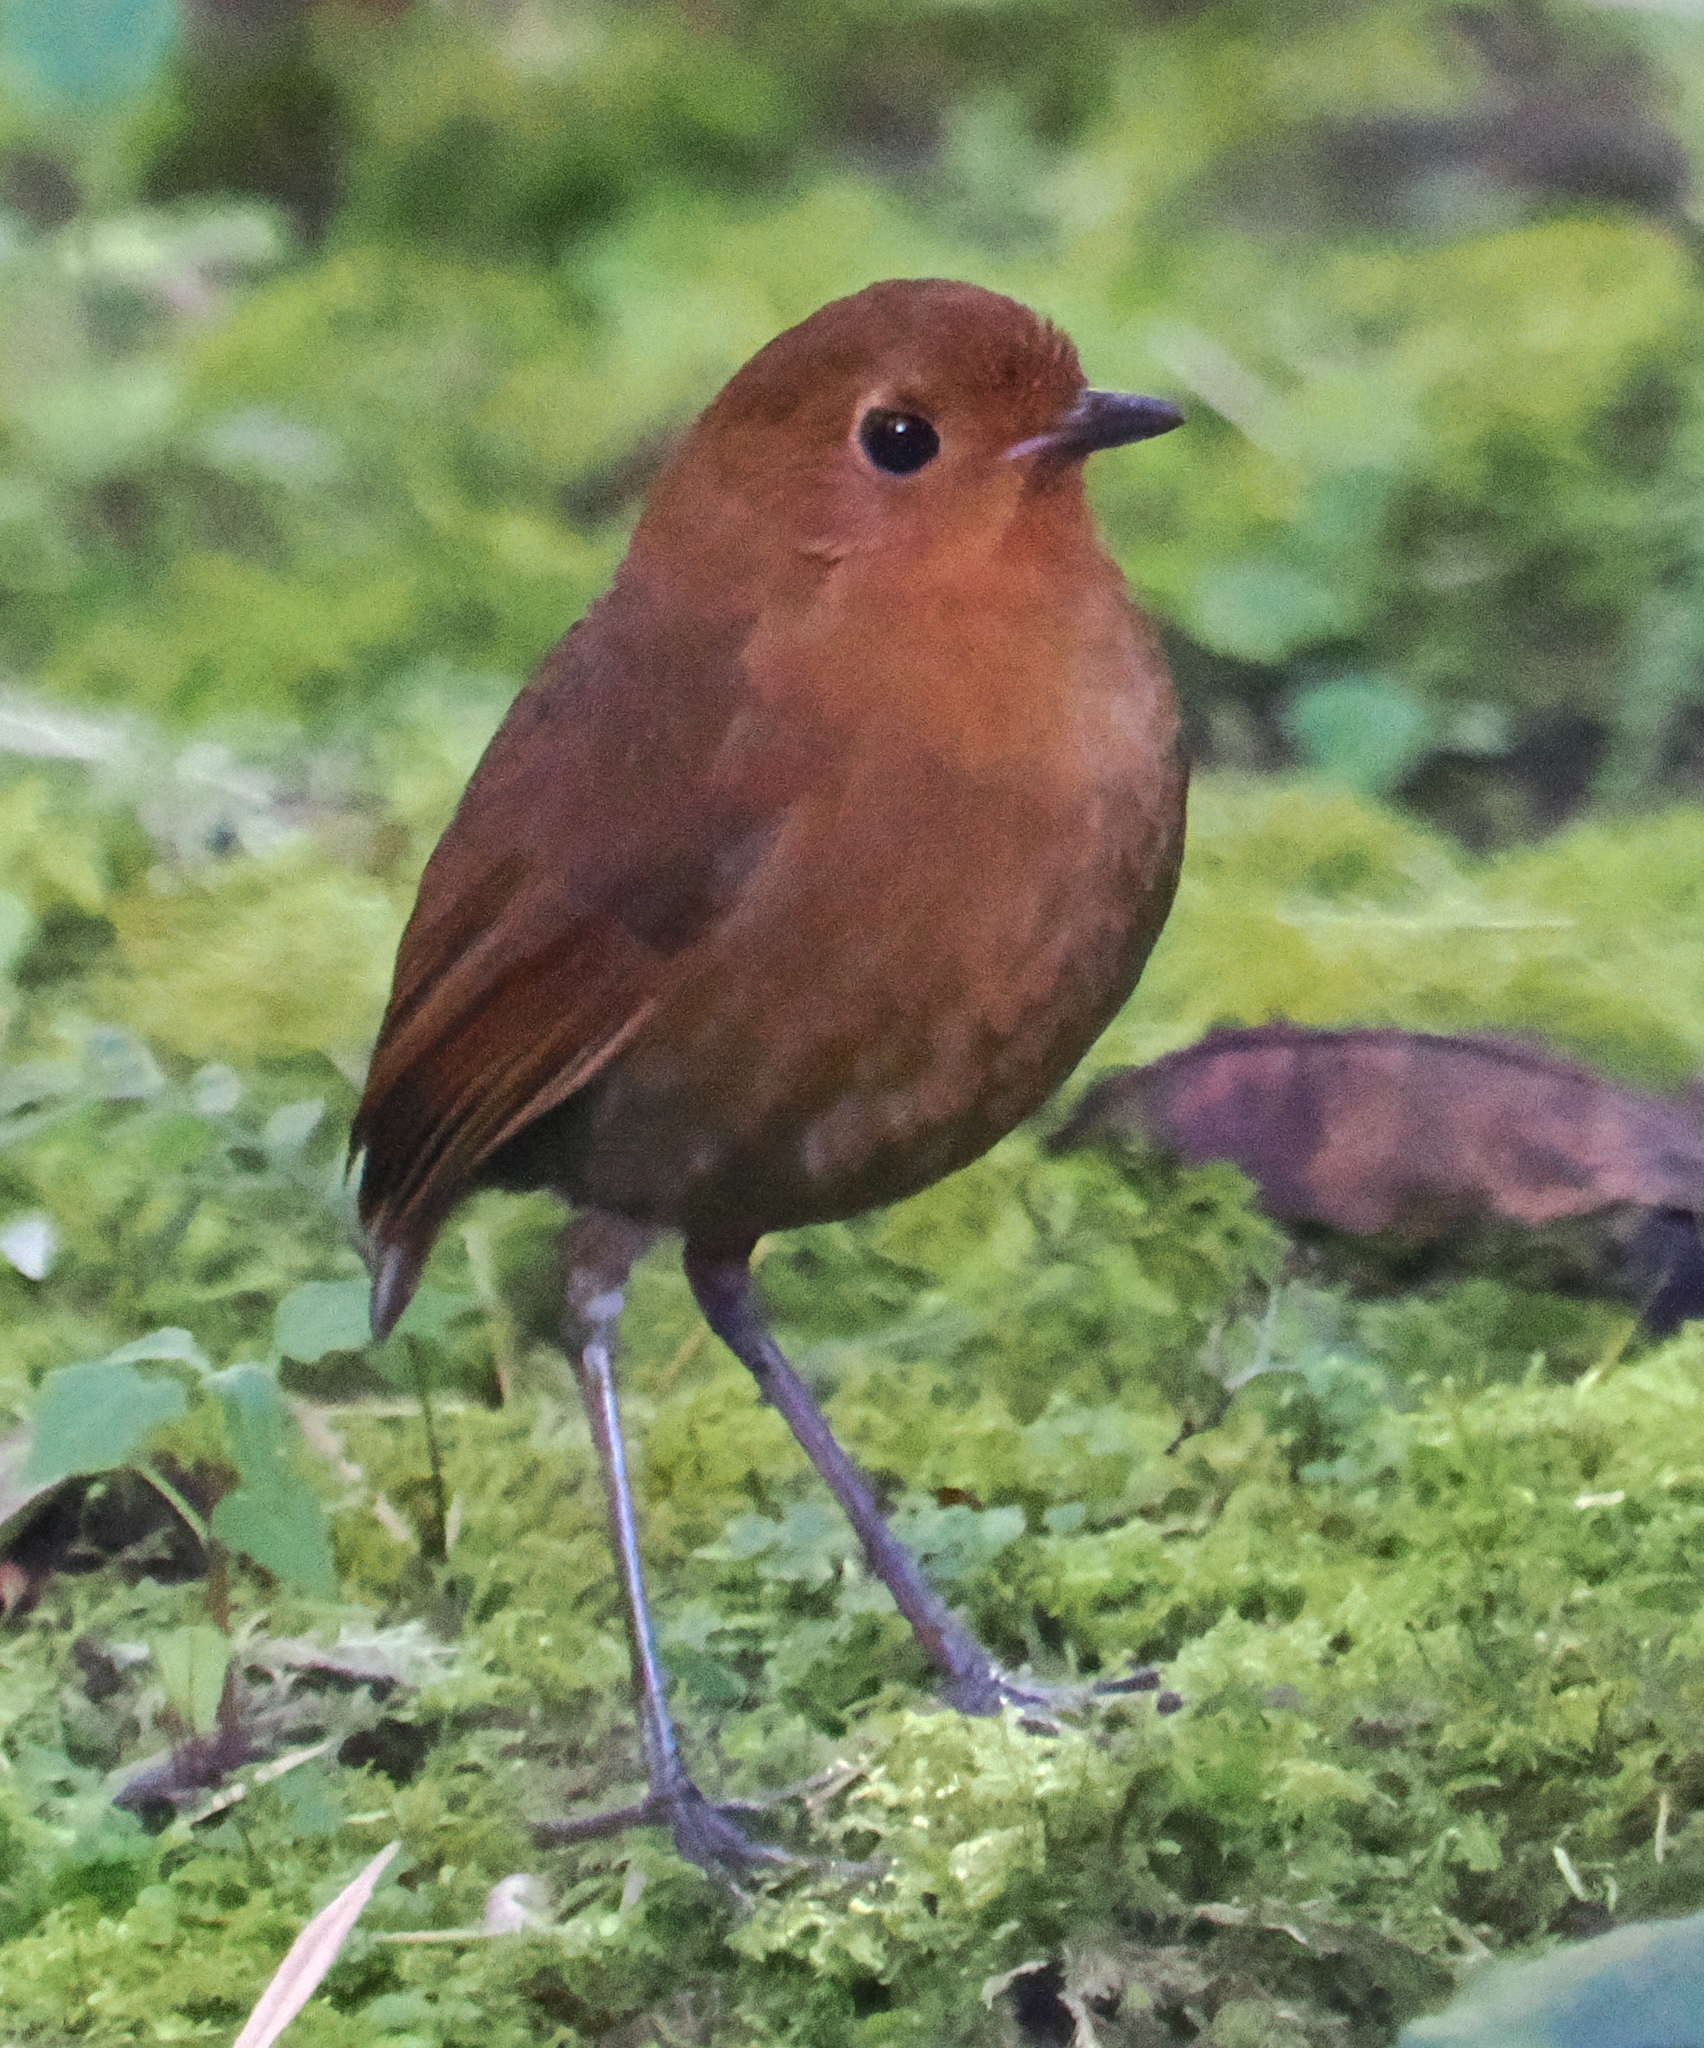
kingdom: Animalia
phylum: Chordata
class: Aves
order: Passeriformes
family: Grallariidae
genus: Grallaria
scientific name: Grallaria saturata
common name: Equatorial antpitta
